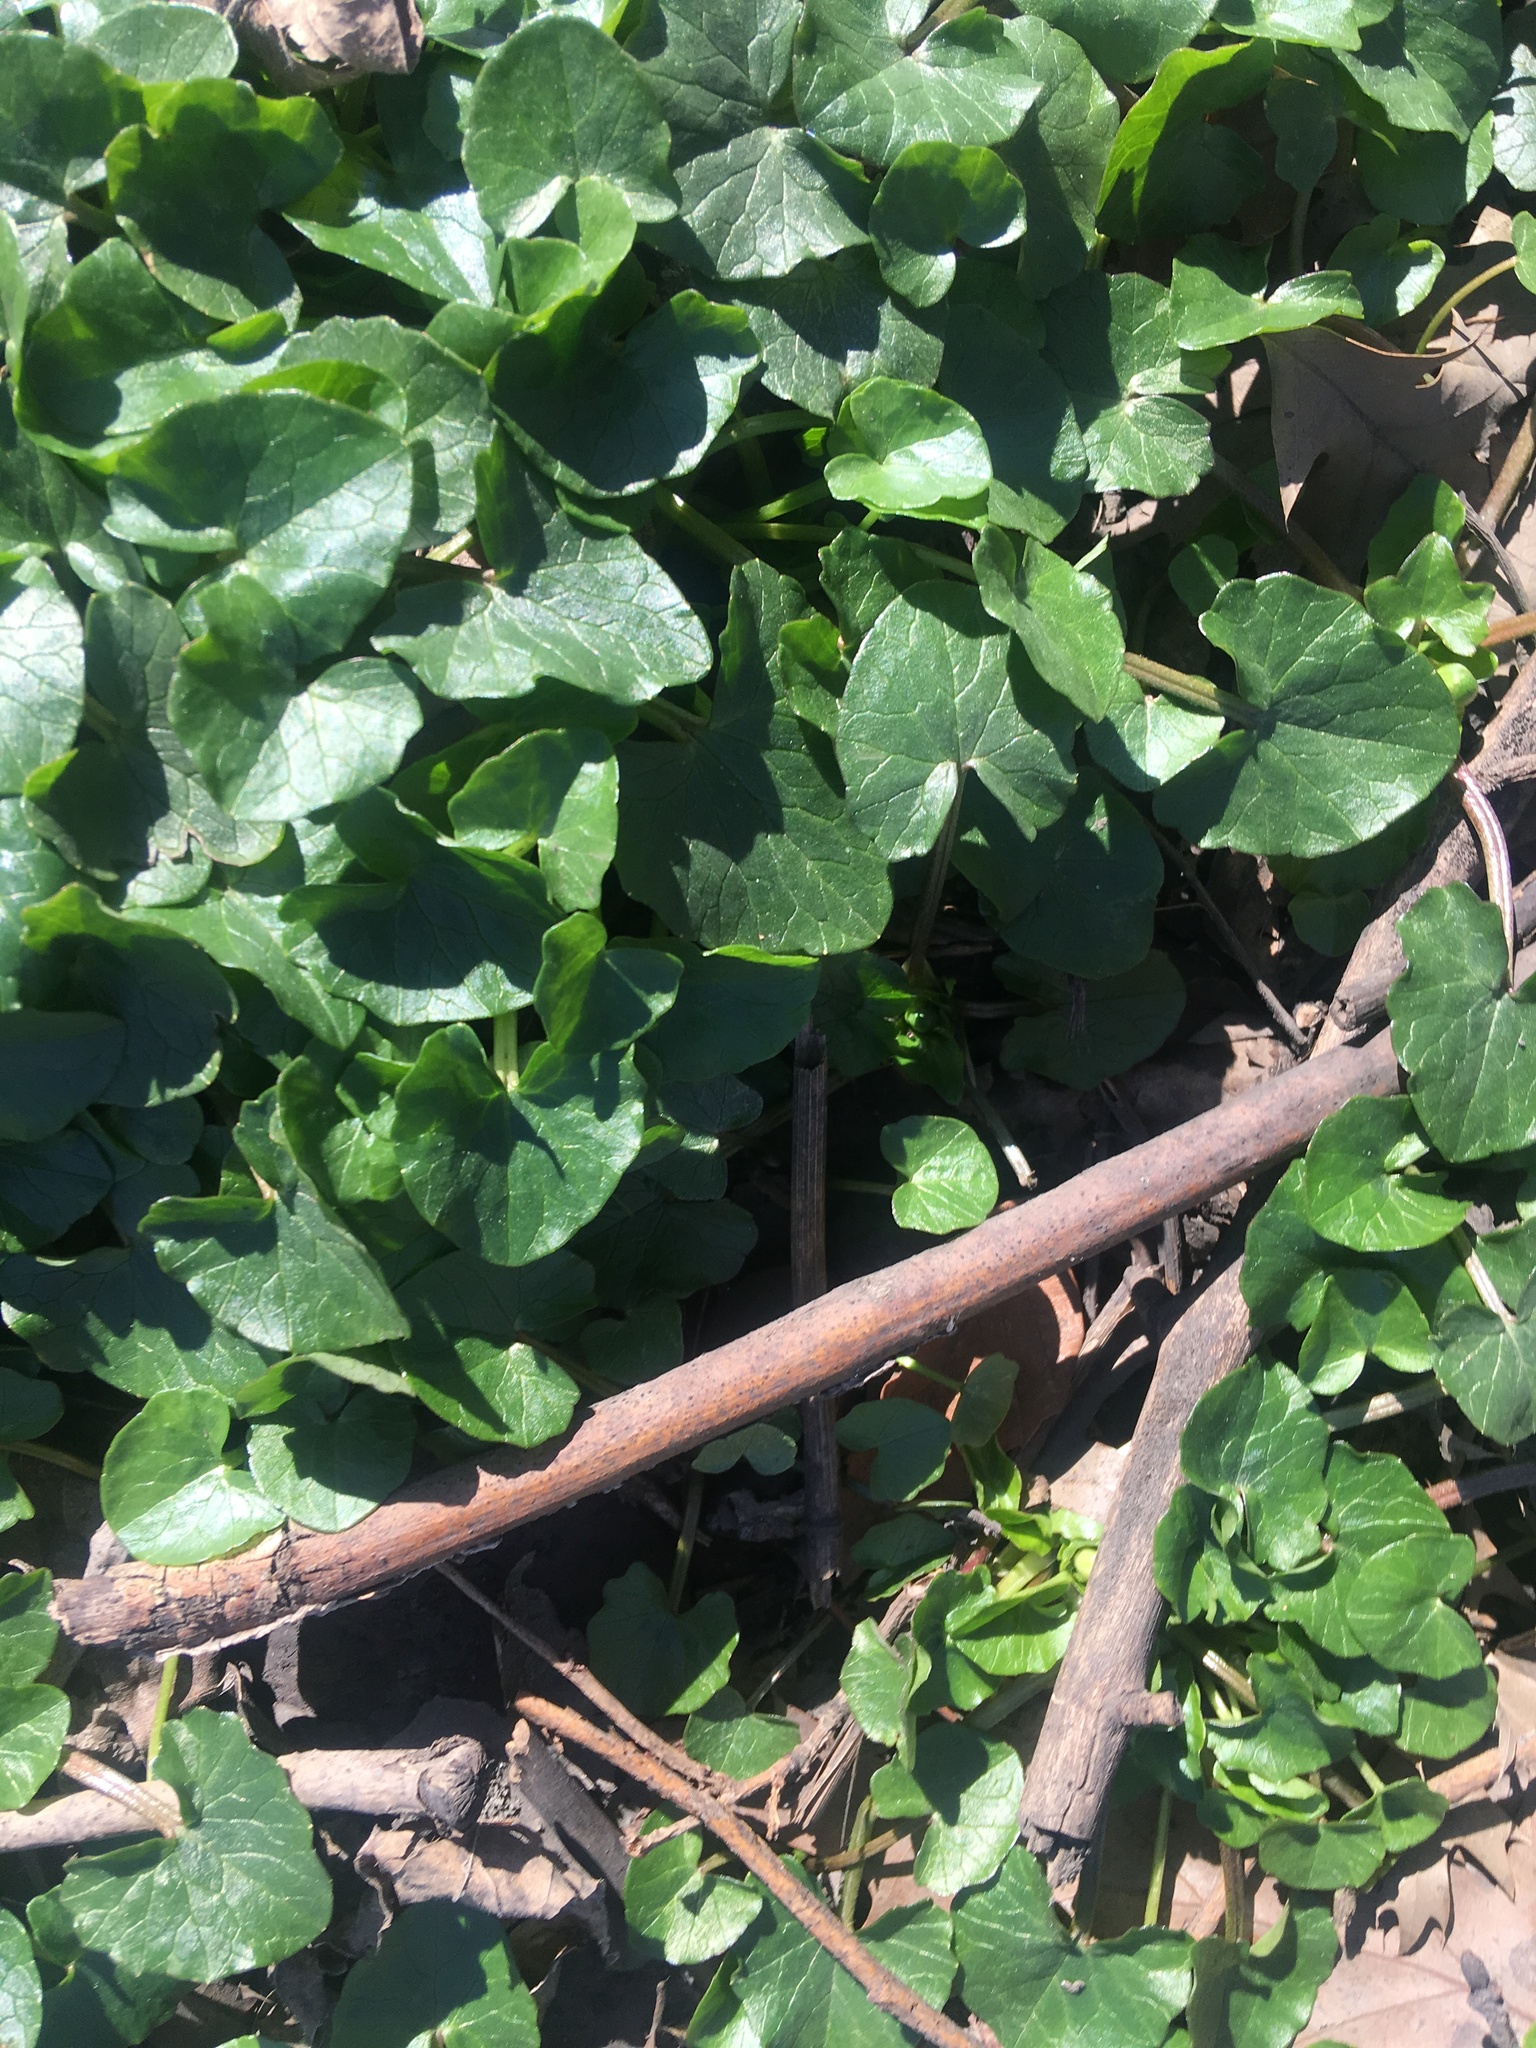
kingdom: Plantae
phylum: Tracheophyta
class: Magnoliopsida
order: Ranunculales
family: Ranunculaceae
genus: Ficaria
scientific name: Ficaria verna
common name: Lesser celandine
